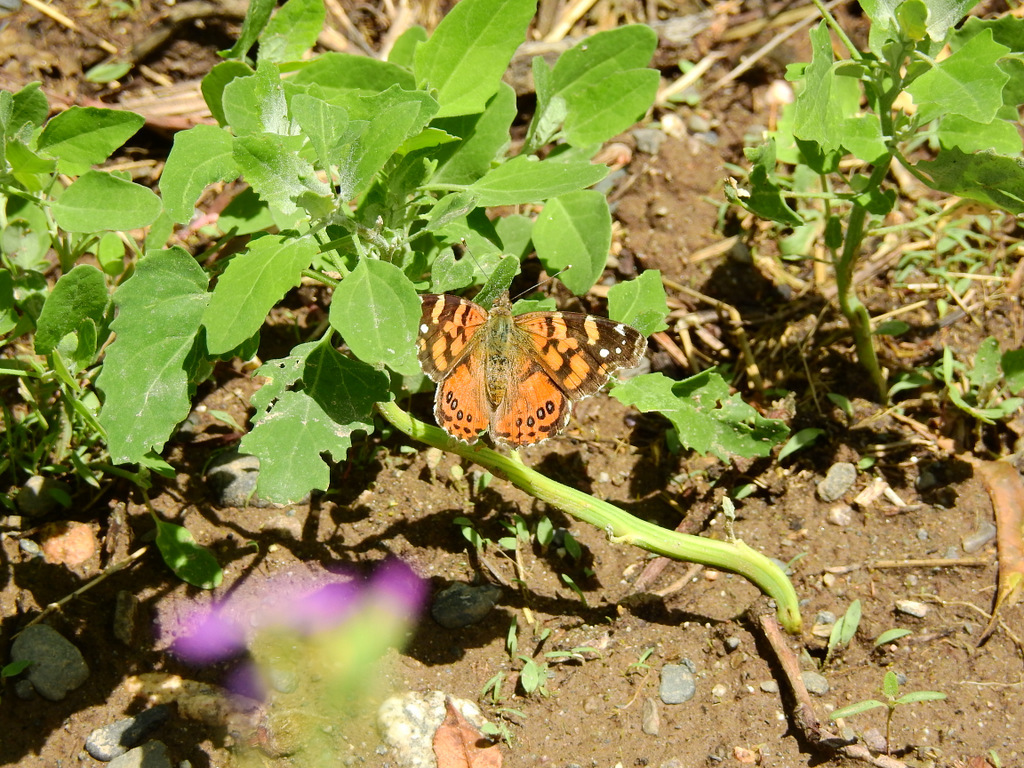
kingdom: Animalia
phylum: Arthropoda
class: Insecta
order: Lepidoptera
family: Nymphalidae
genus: Vanessa
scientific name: Vanessa carye
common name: Subtropical lady
